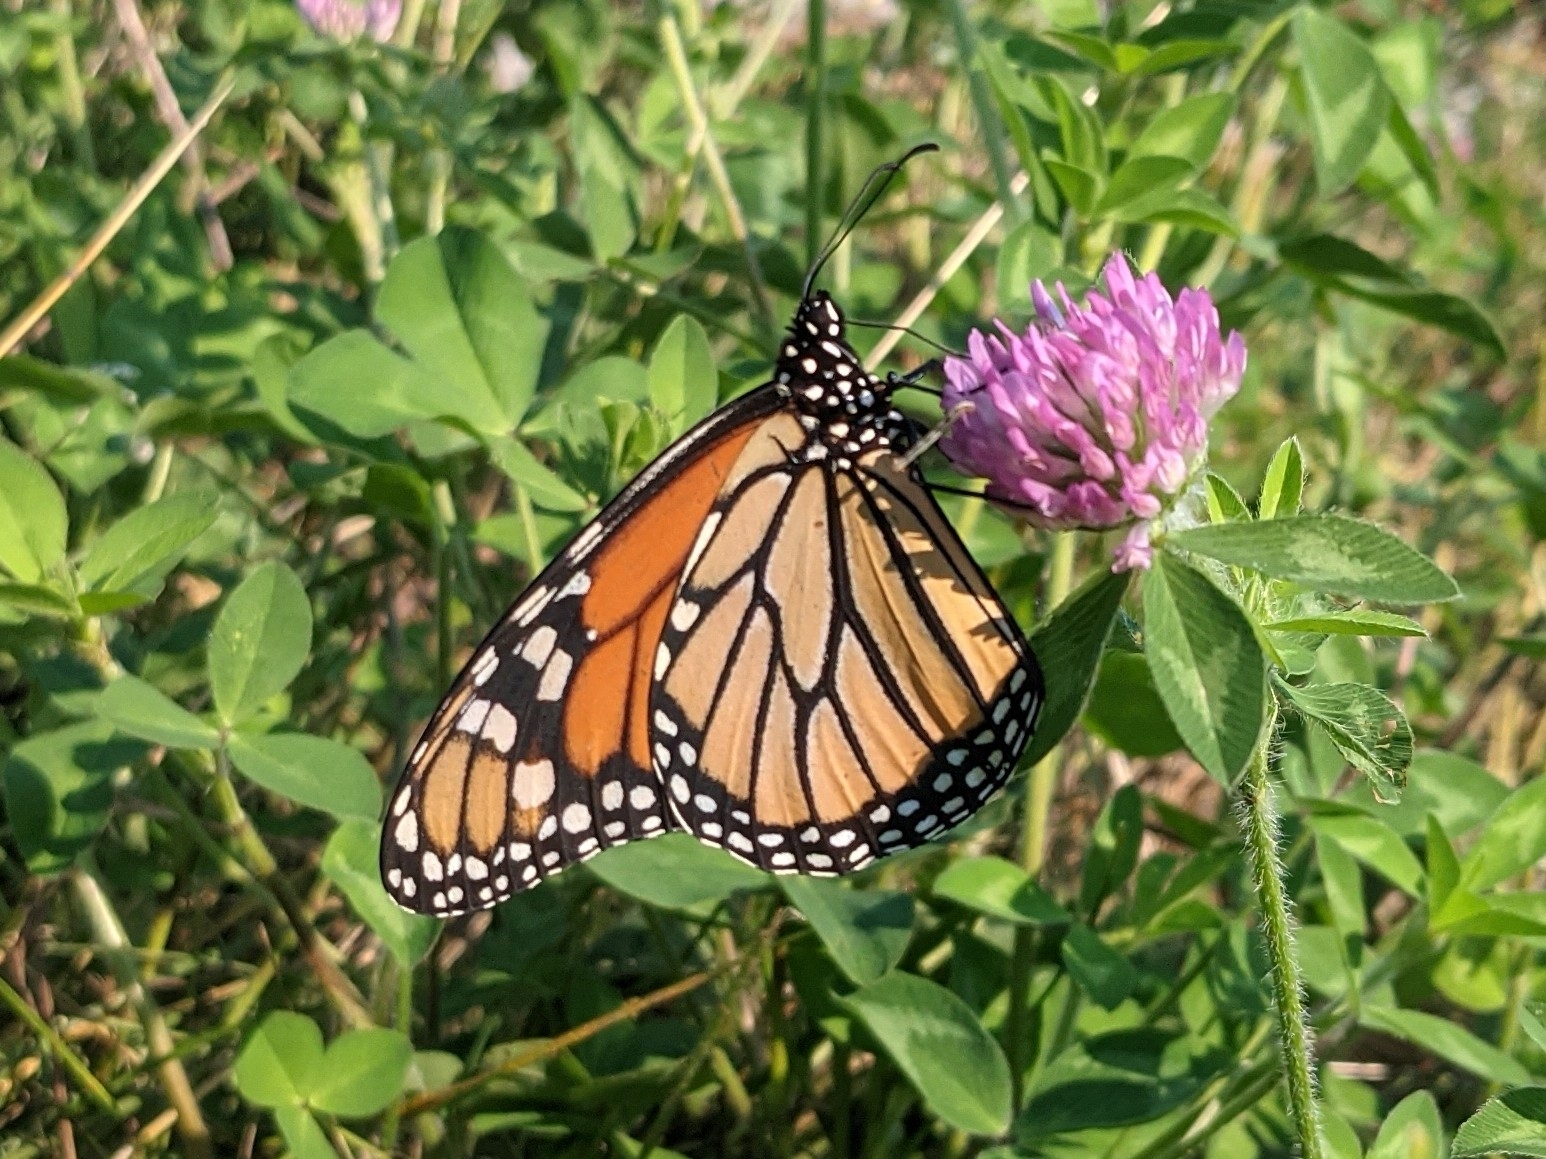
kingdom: Animalia
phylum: Arthropoda
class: Insecta
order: Lepidoptera
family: Nymphalidae
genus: Danaus
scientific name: Danaus plexippus
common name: Monarch
